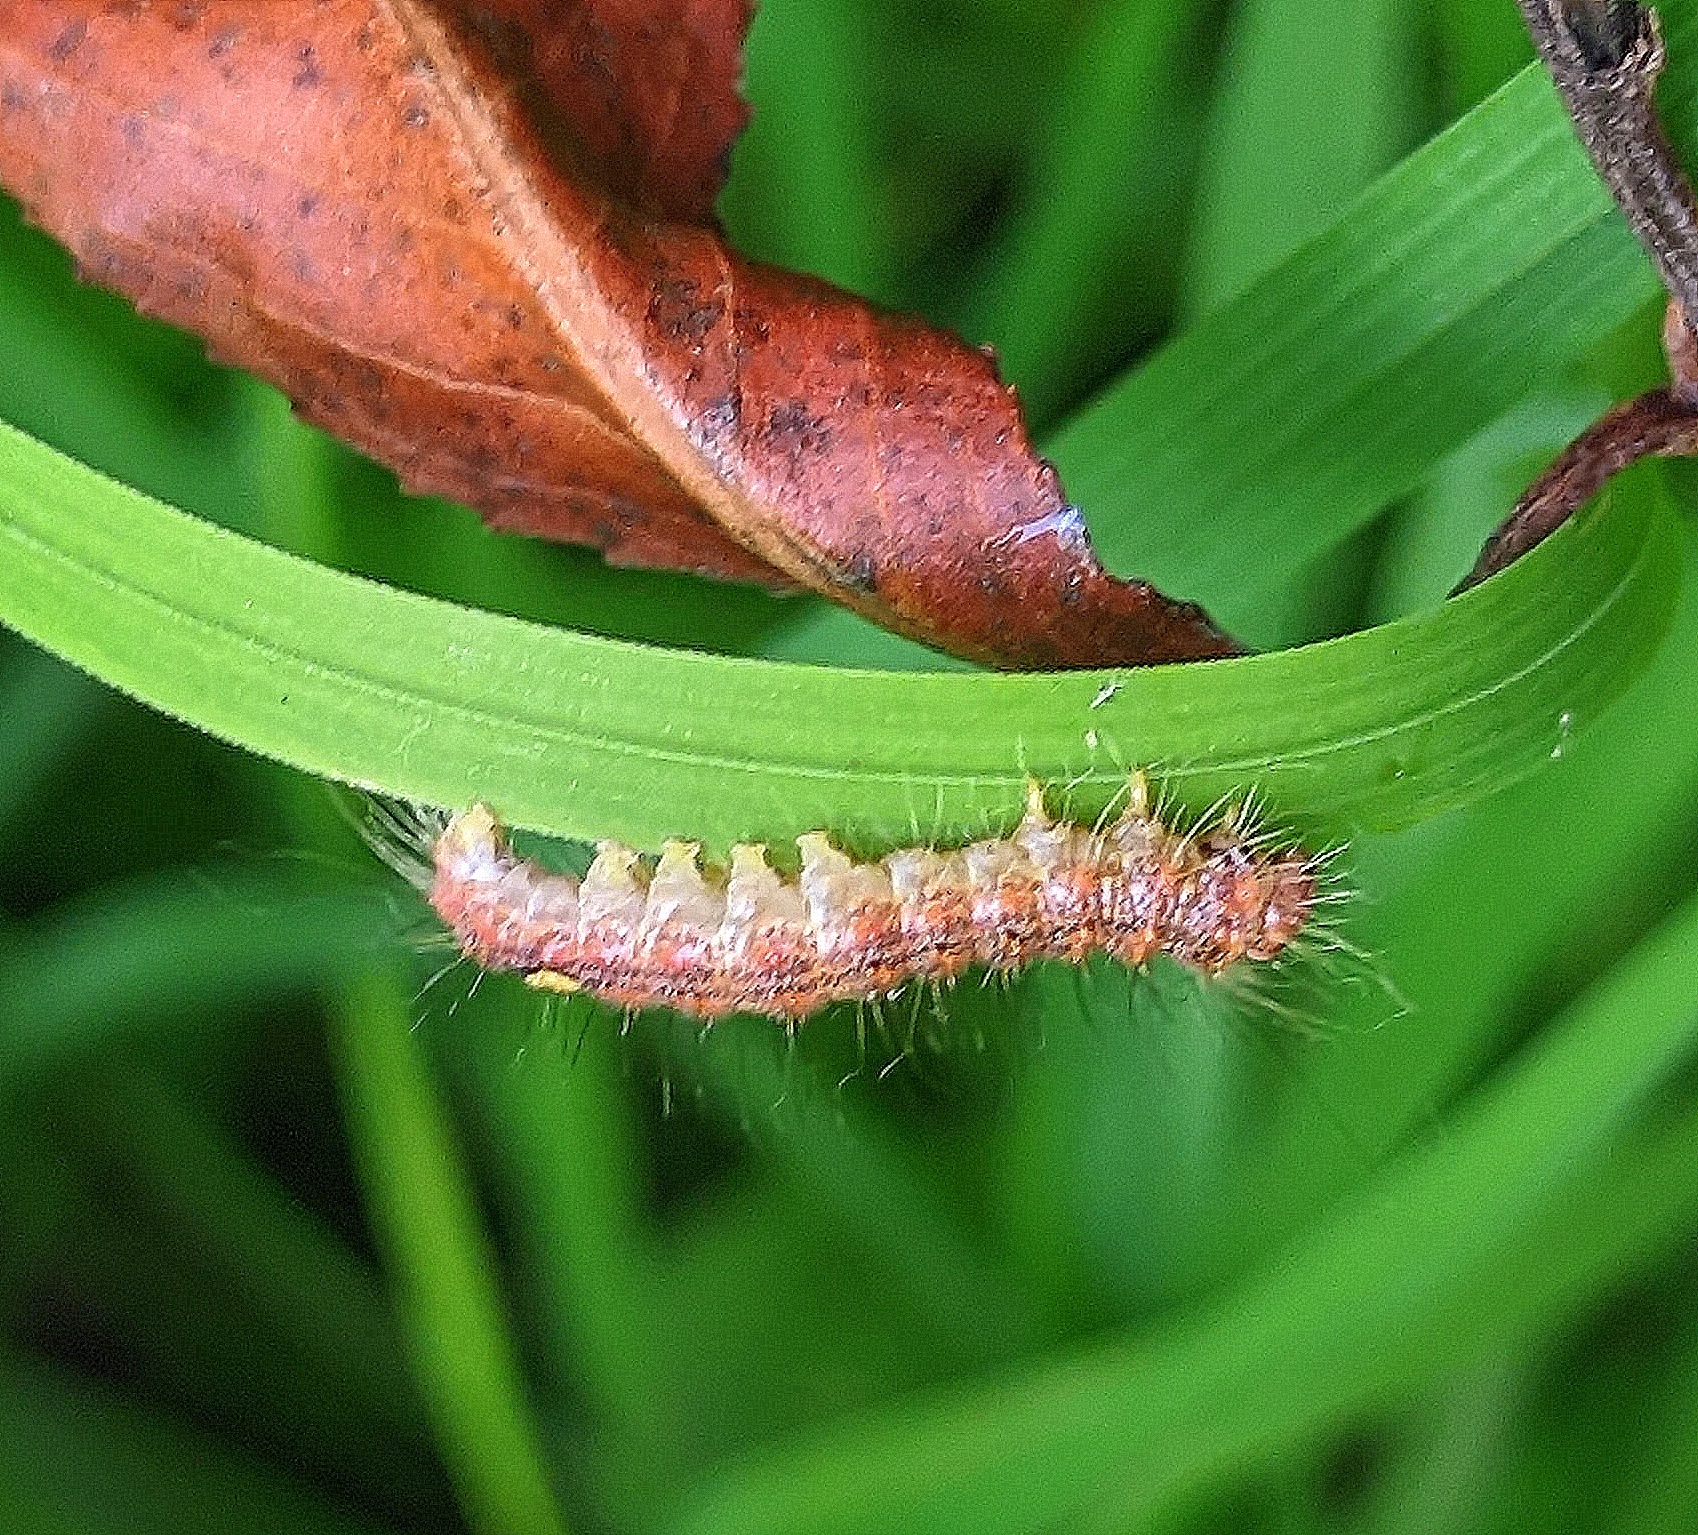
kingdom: Animalia
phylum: Arthropoda
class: Insecta
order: Lepidoptera
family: Noctuidae
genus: Acronicta
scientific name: Acronicta megacephala
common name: Poplar grey
